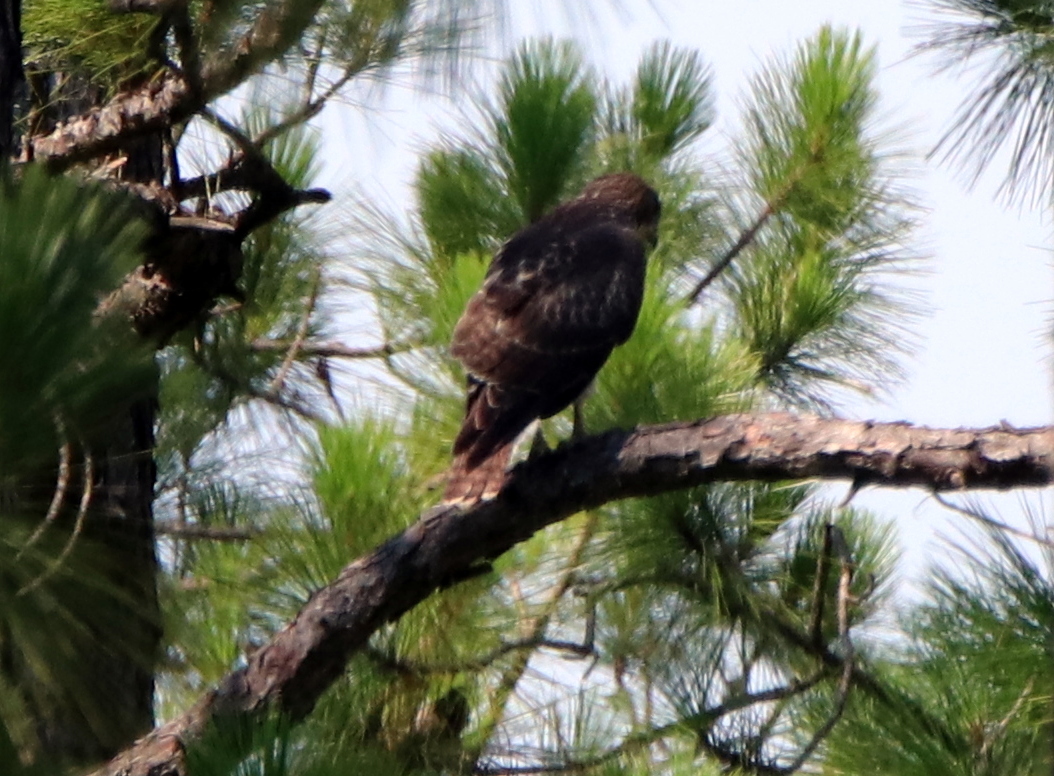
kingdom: Animalia
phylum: Chordata
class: Aves
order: Accipitriformes
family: Accipitridae
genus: Buteo
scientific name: Buteo jamaicensis
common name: Red-tailed hawk
